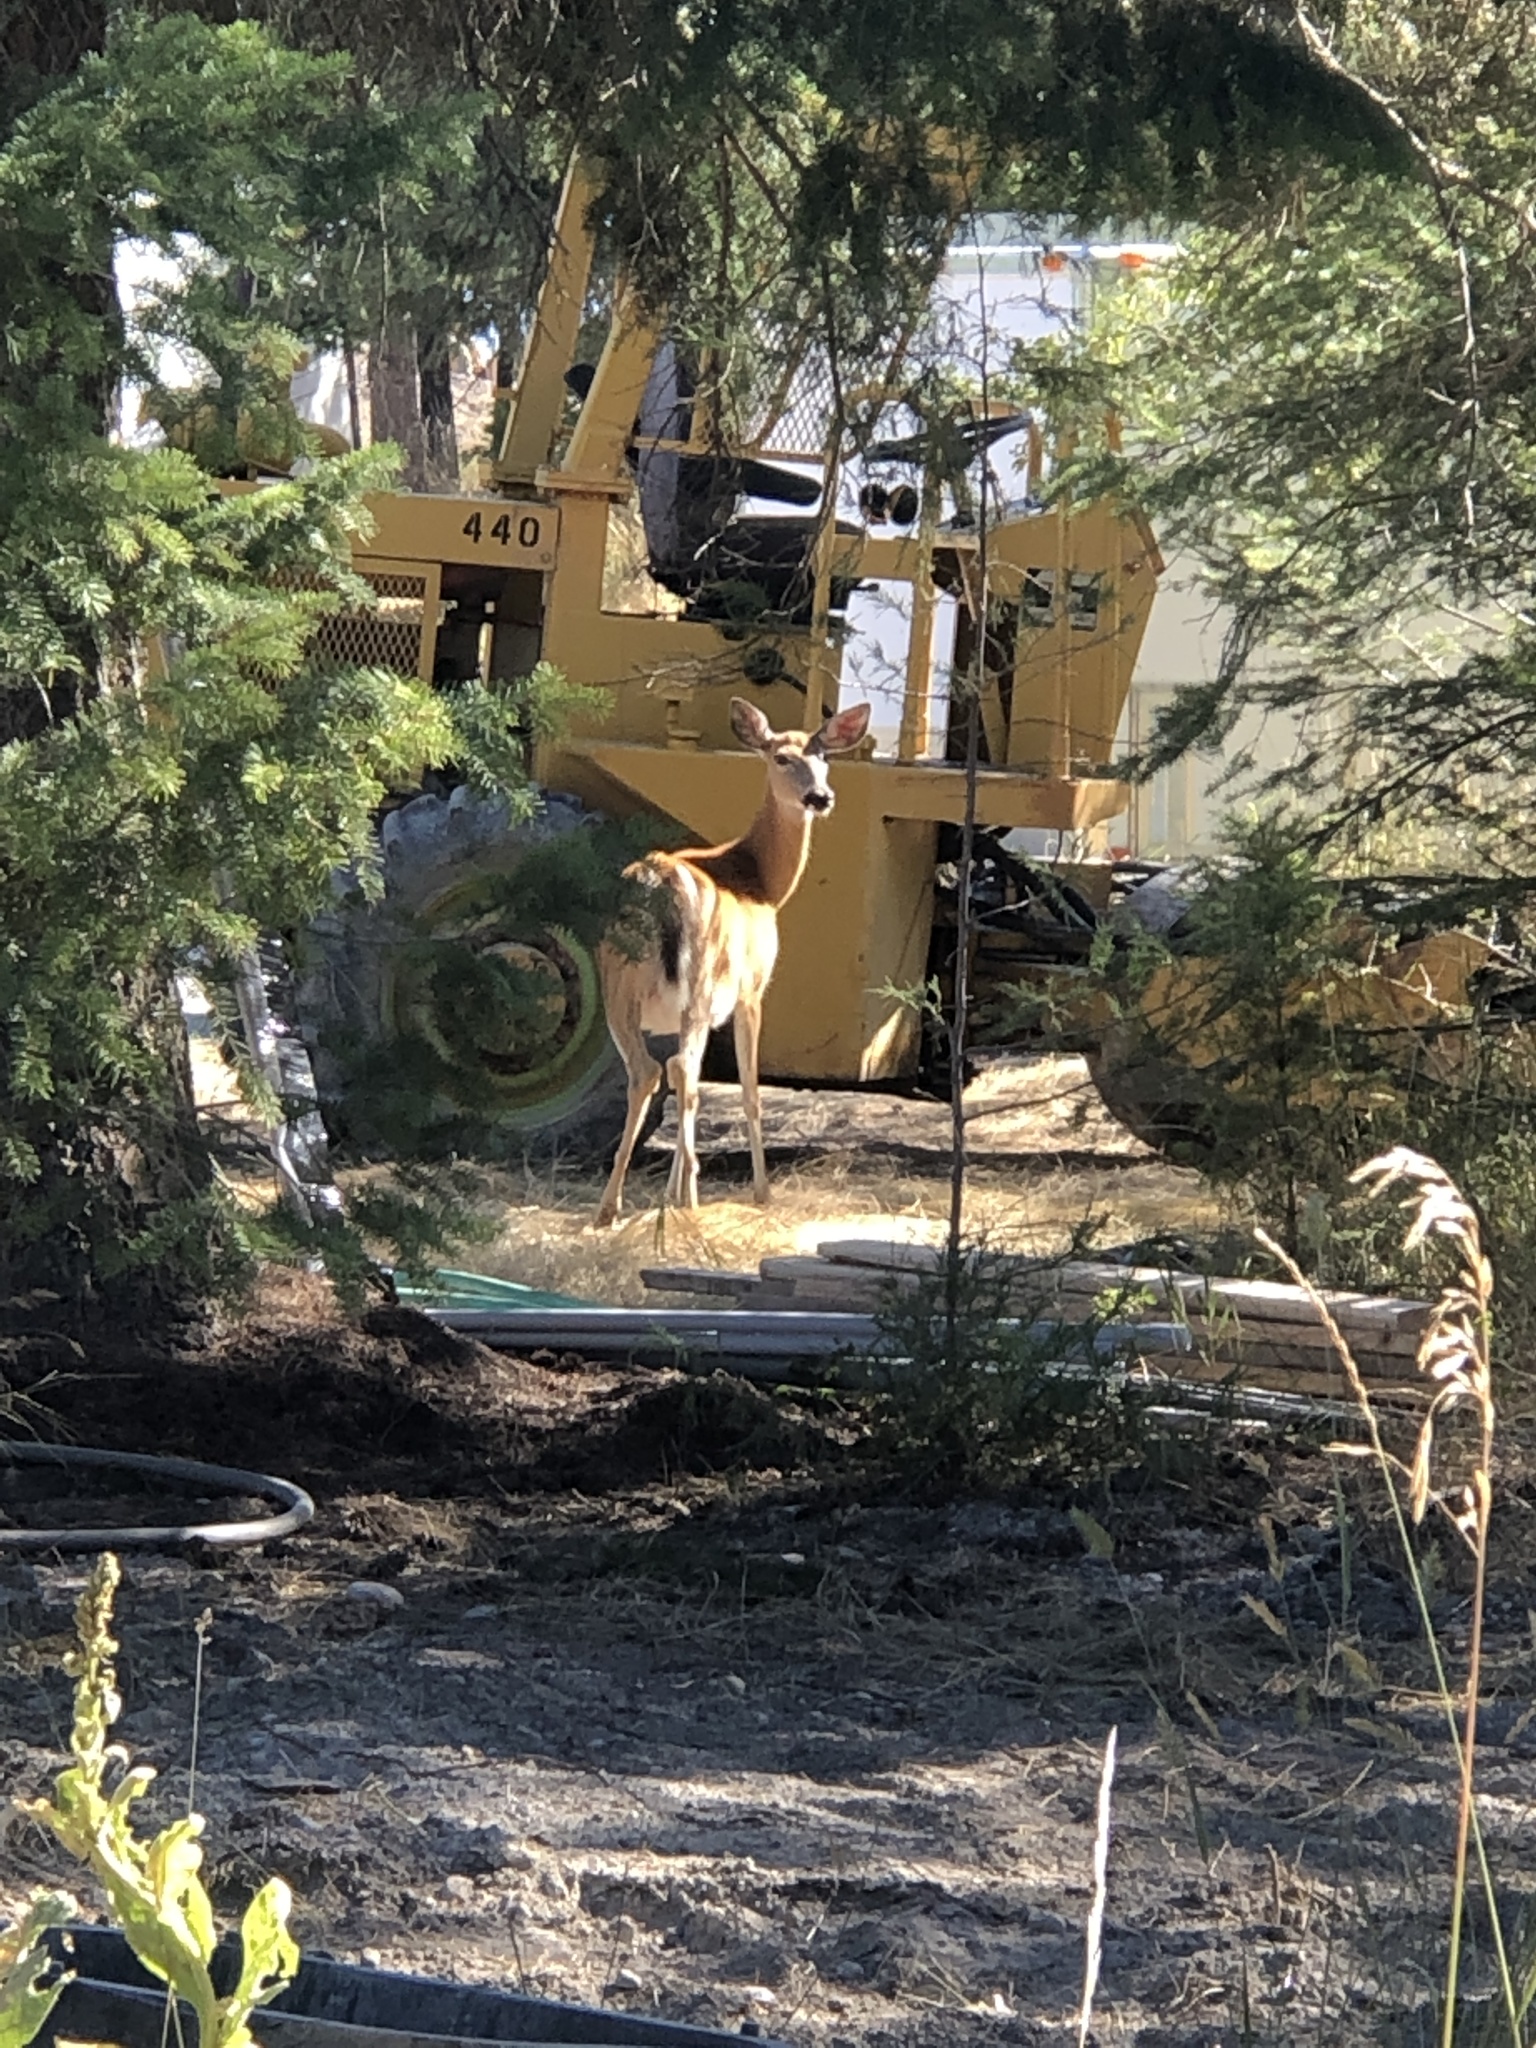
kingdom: Animalia
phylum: Chordata
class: Mammalia
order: Artiodactyla
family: Cervidae
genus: Odocoileus
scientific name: Odocoileus virginianus
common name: White-tailed deer
